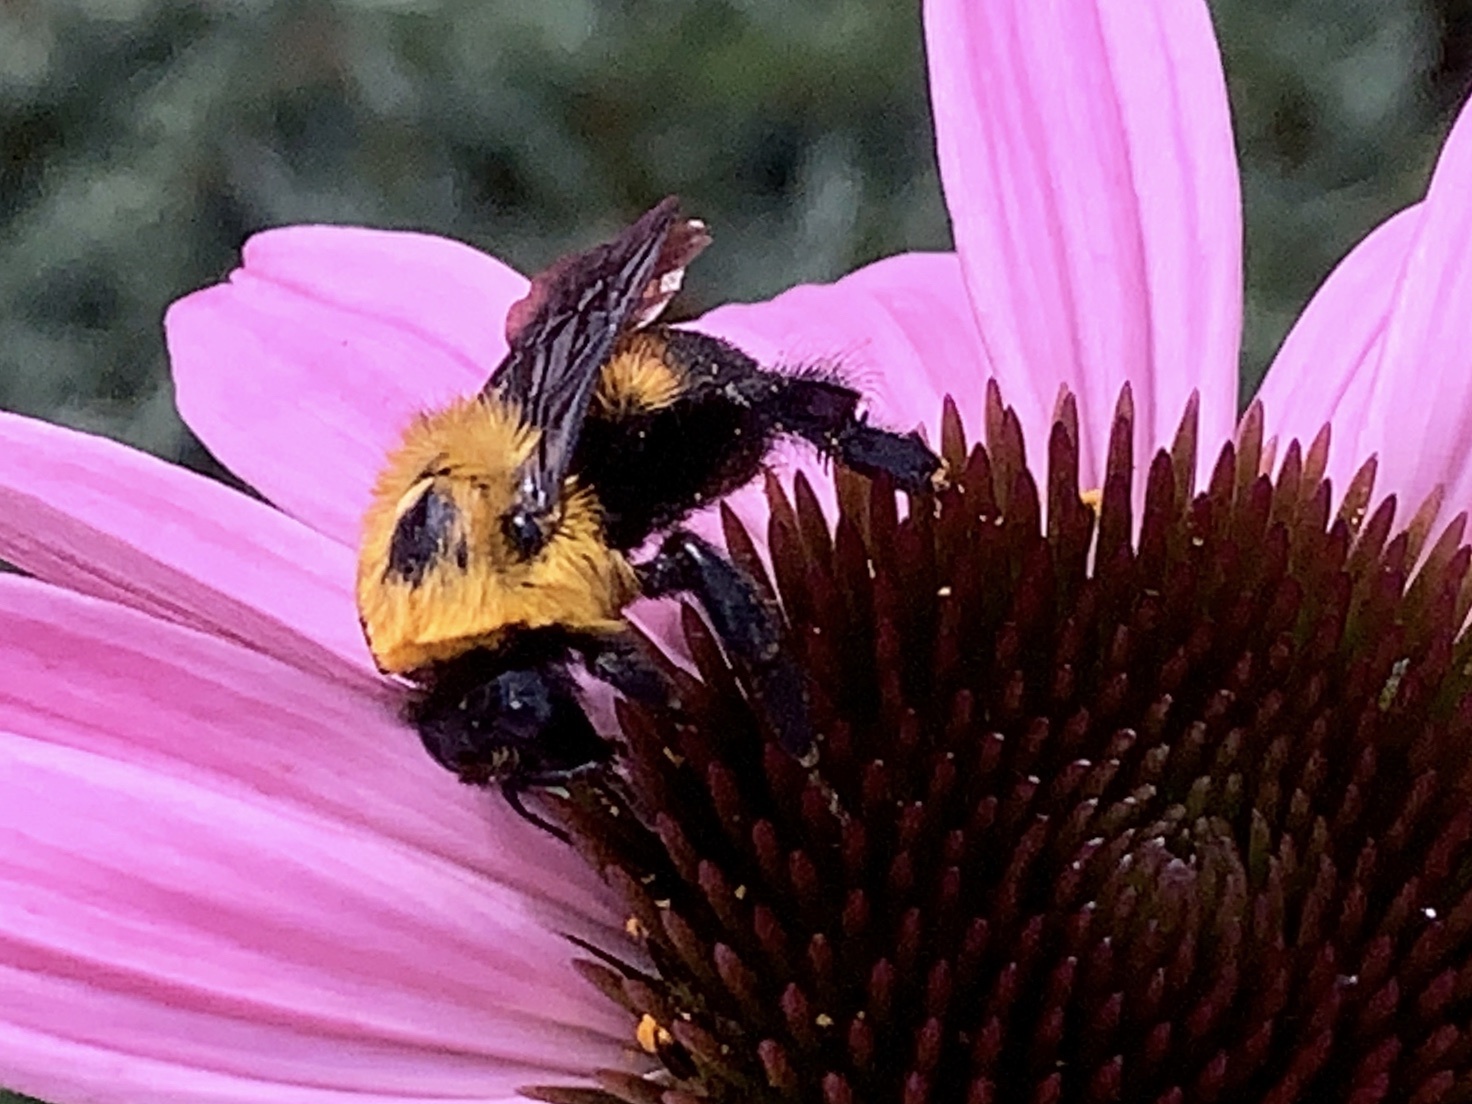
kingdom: Animalia
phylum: Arthropoda
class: Insecta
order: Hymenoptera
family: Apidae
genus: Bombus
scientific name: Bombus griseocollis
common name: Brown-belted bumble bee
